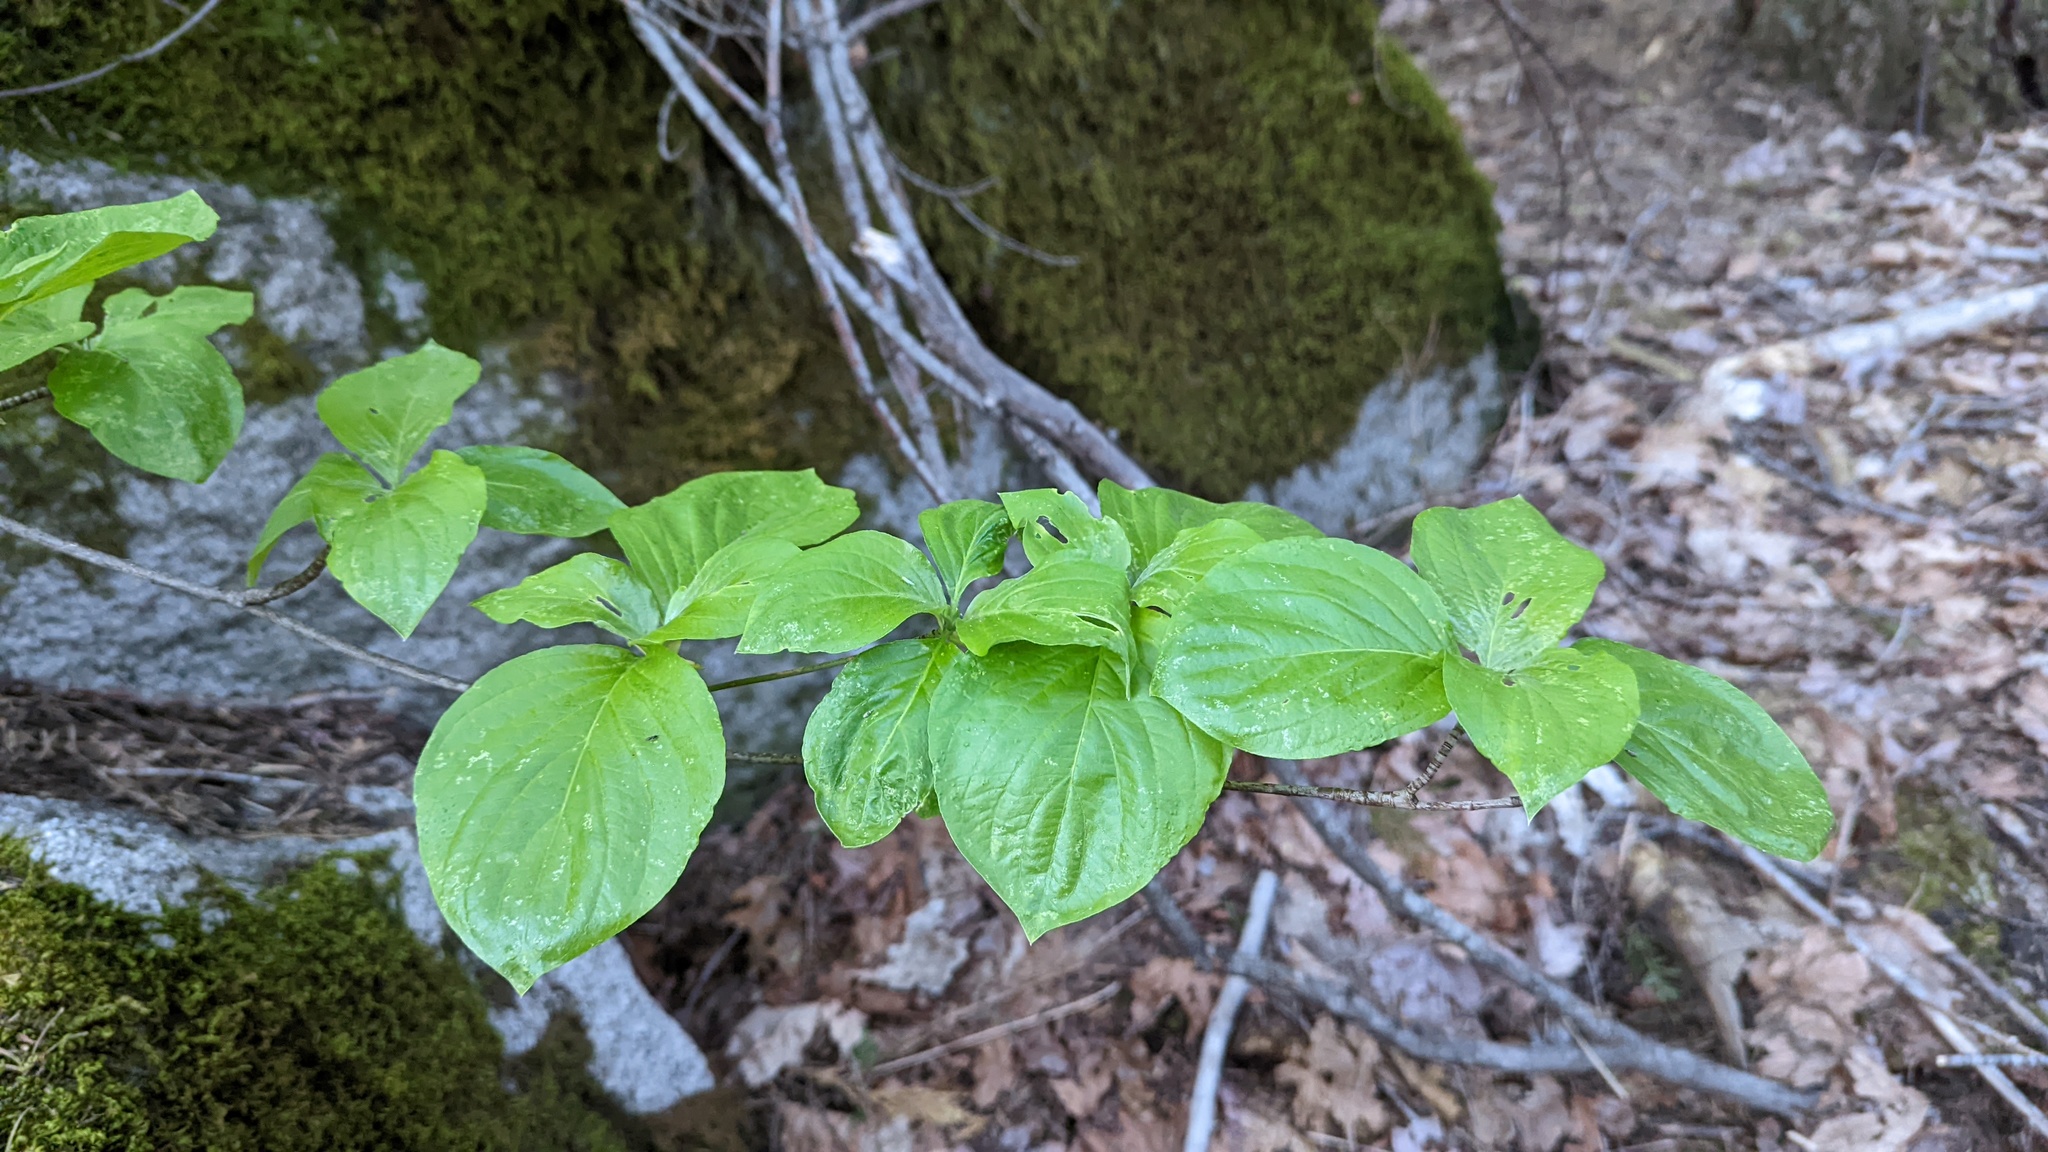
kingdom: Plantae
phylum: Tracheophyta
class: Magnoliopsida
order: Cornales
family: Cornaceae
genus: Cornus
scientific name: Cornus nuttallii
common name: Pacific dogwood
